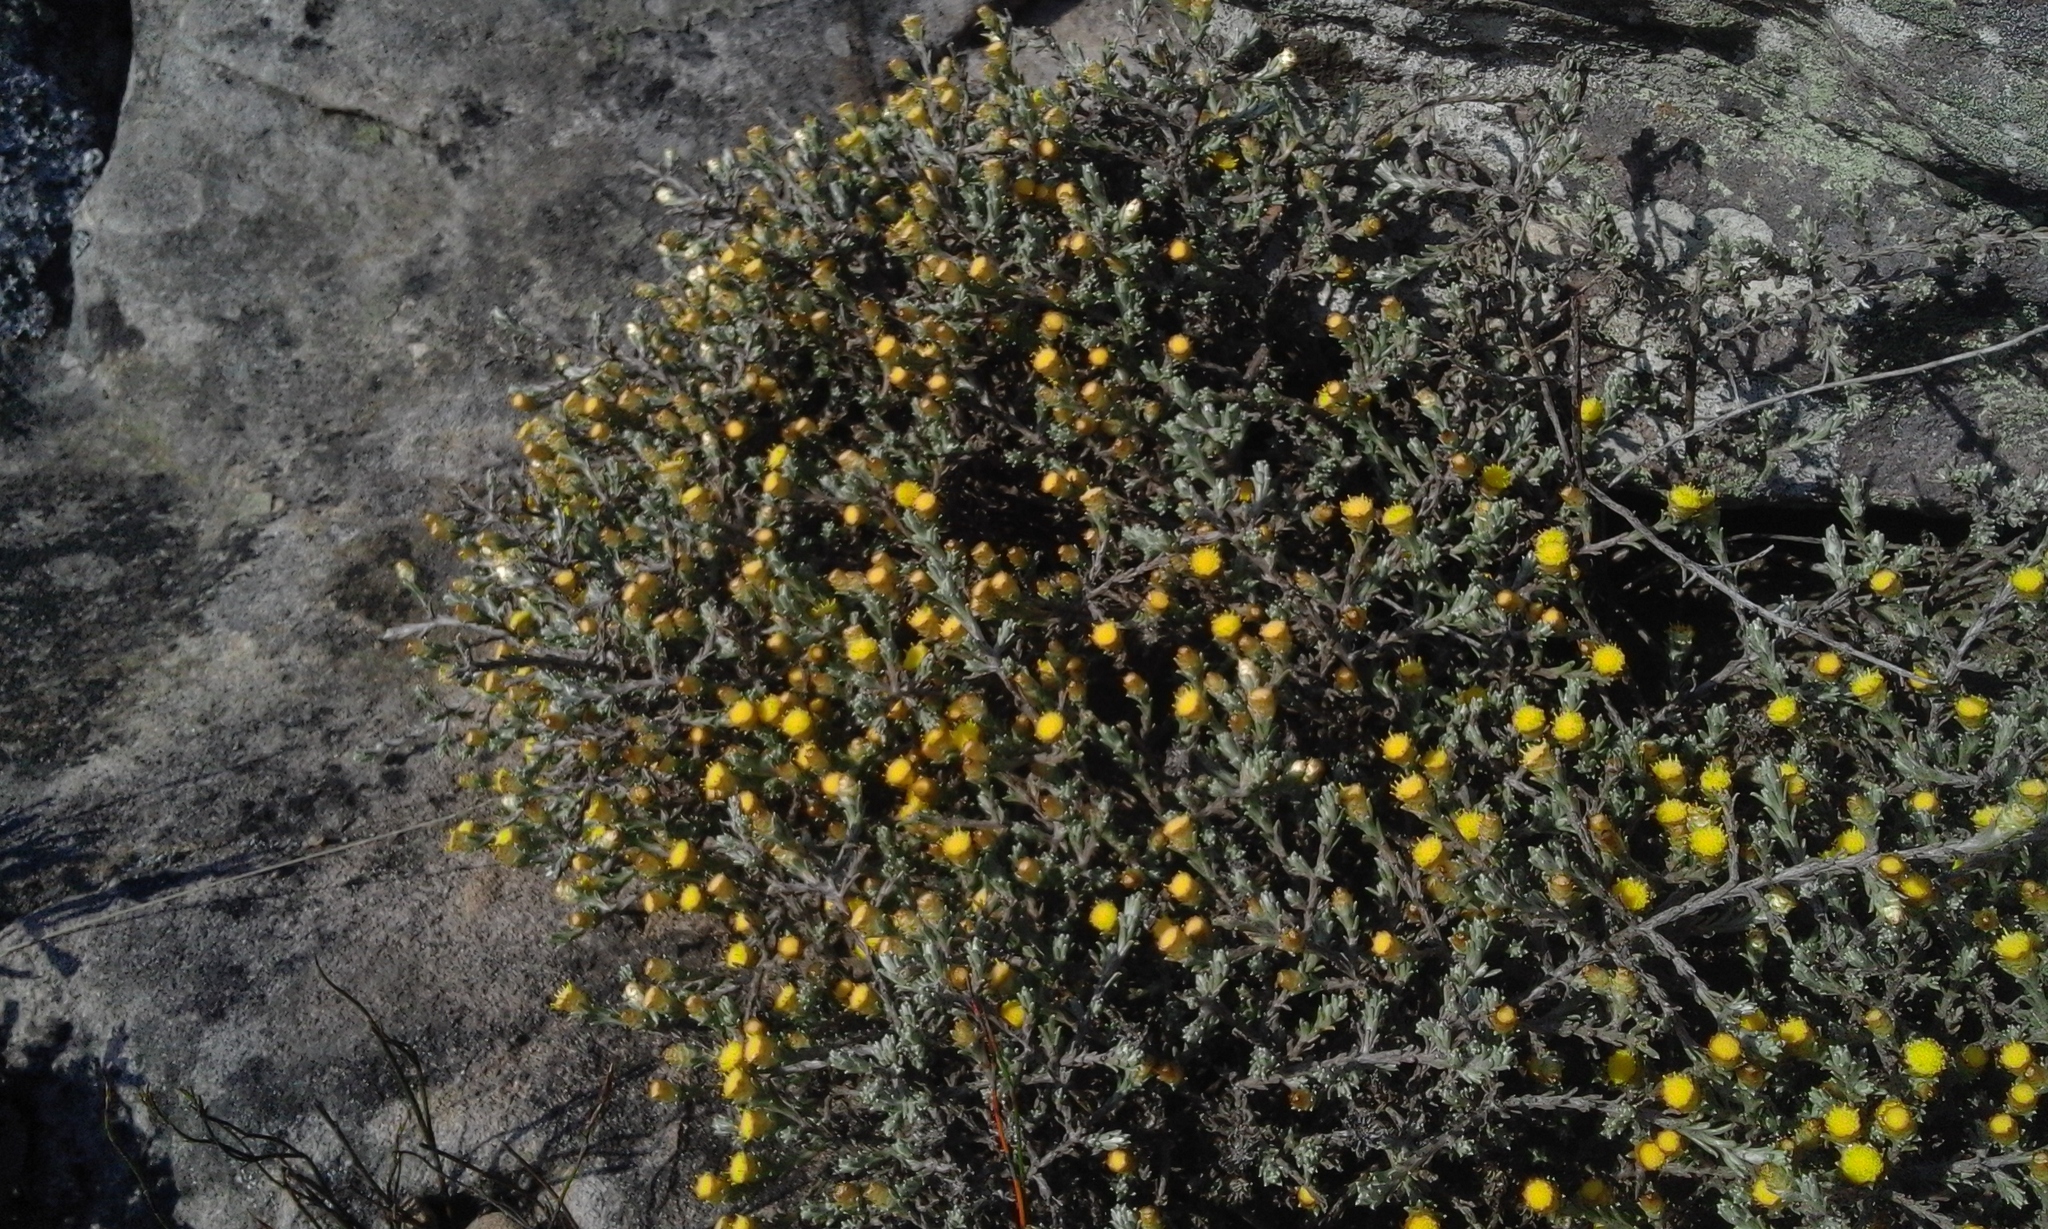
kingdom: Plantae
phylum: Tracheophyta
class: Magnoliopsida
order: Asterales
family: Asteraceae
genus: Helichrysum
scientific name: Helichrysum obductum
